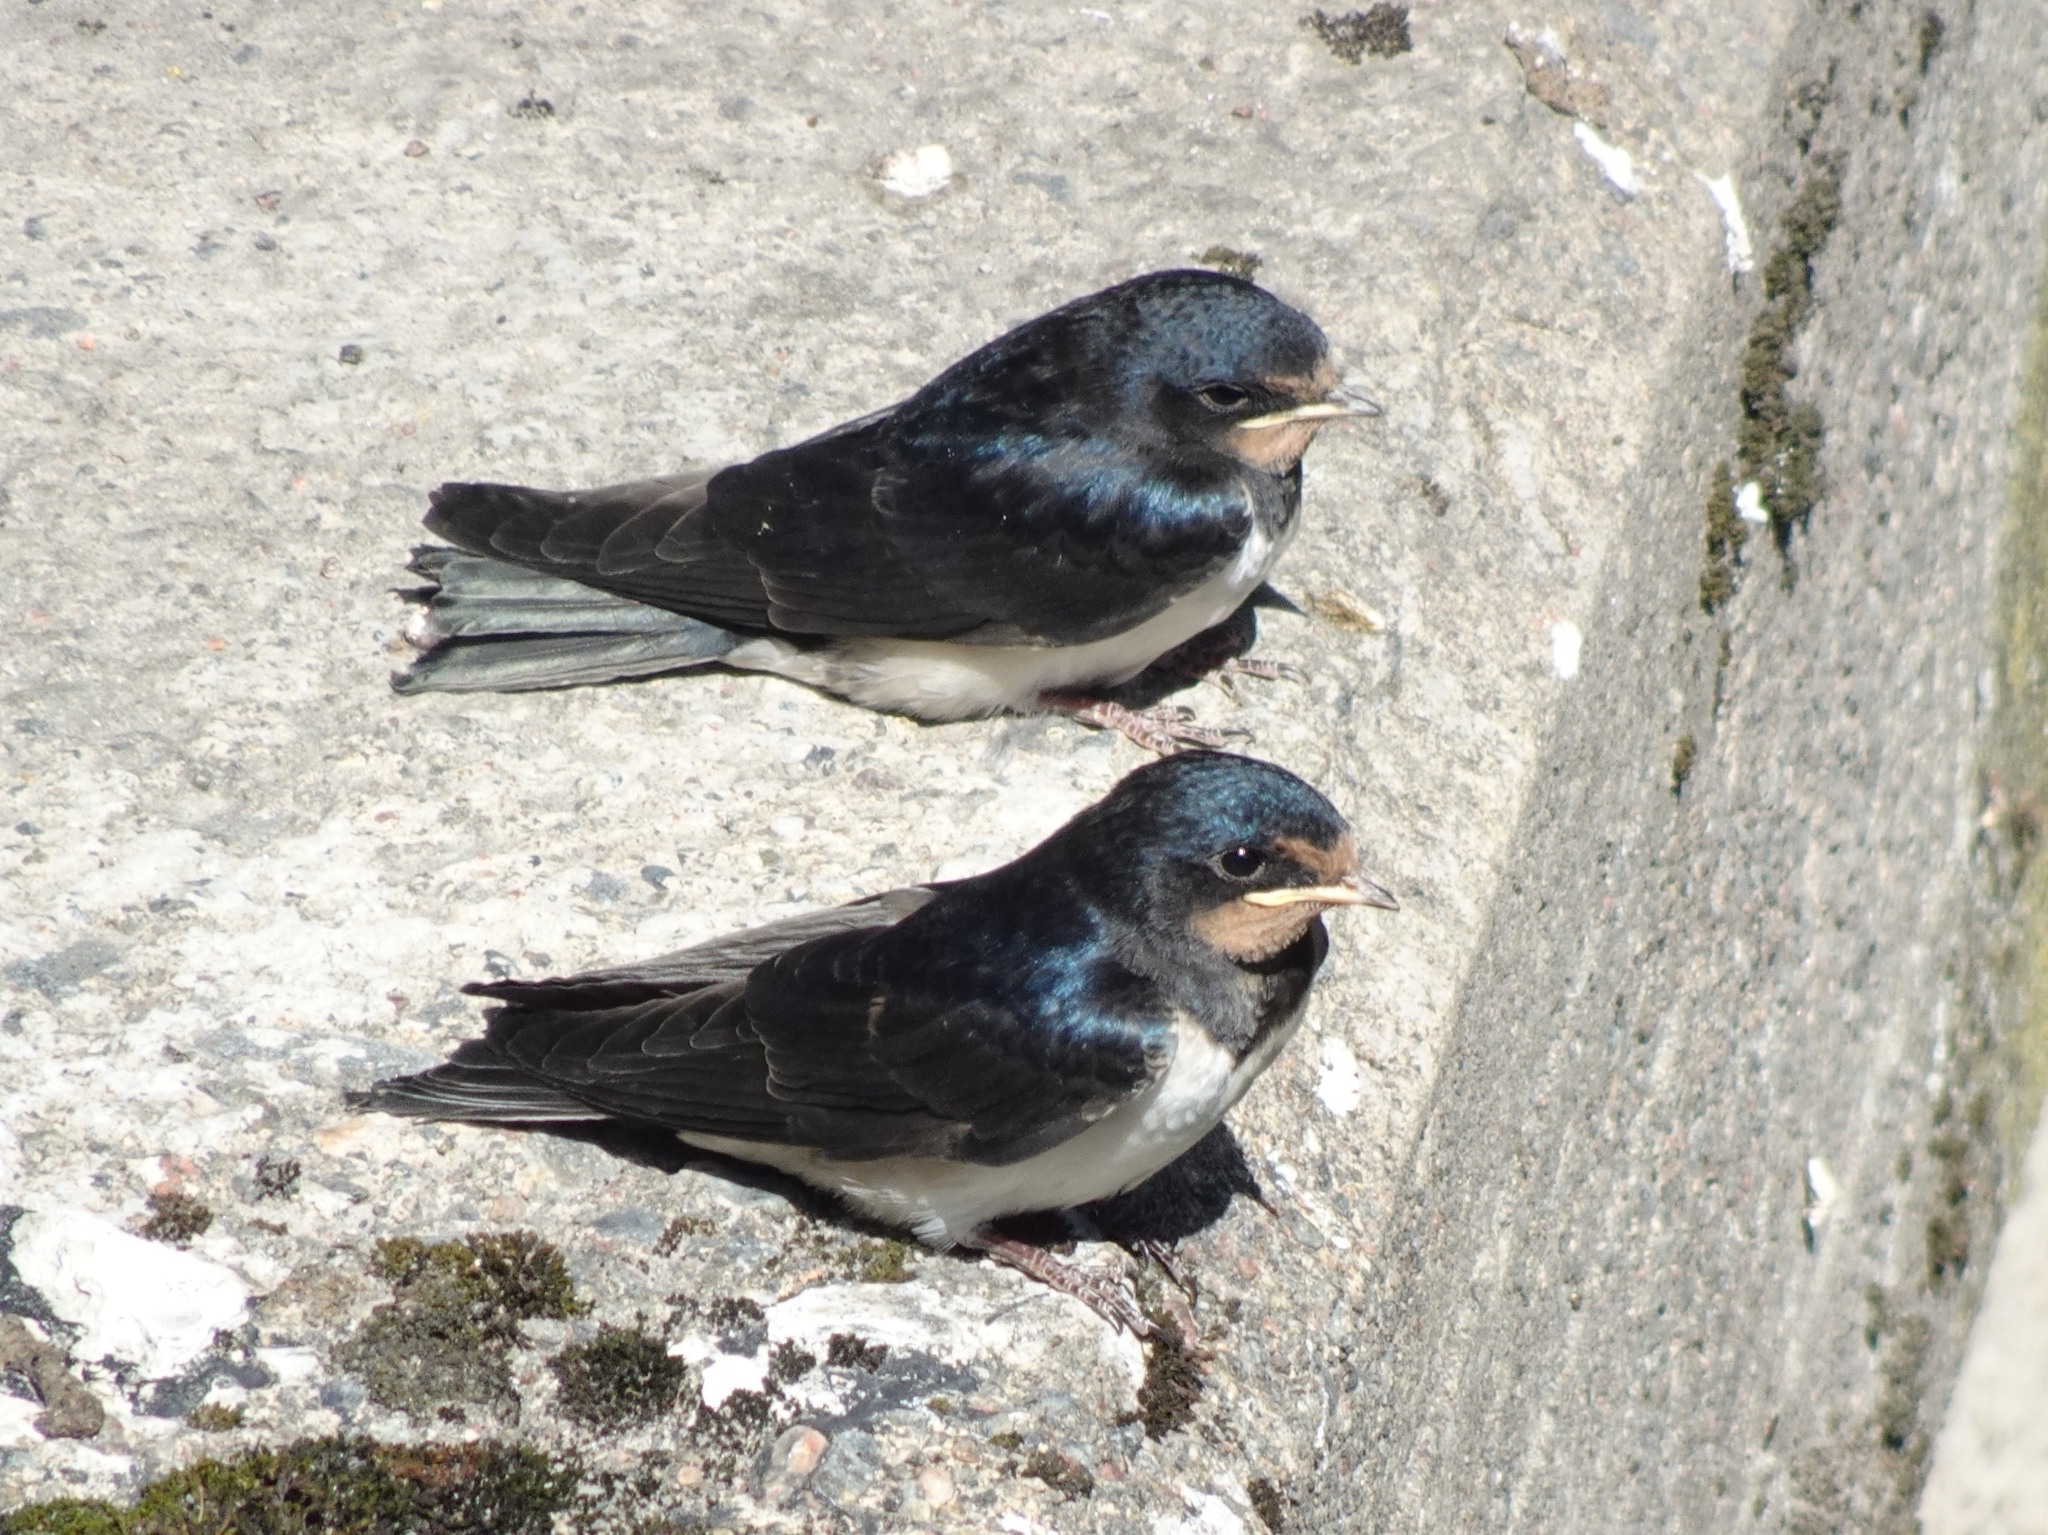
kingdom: Animalia
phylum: Chordata
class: Aves
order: Passeriformes
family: Hirundinidae
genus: Hirundo
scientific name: Hirundo rustica
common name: Barn swallow
